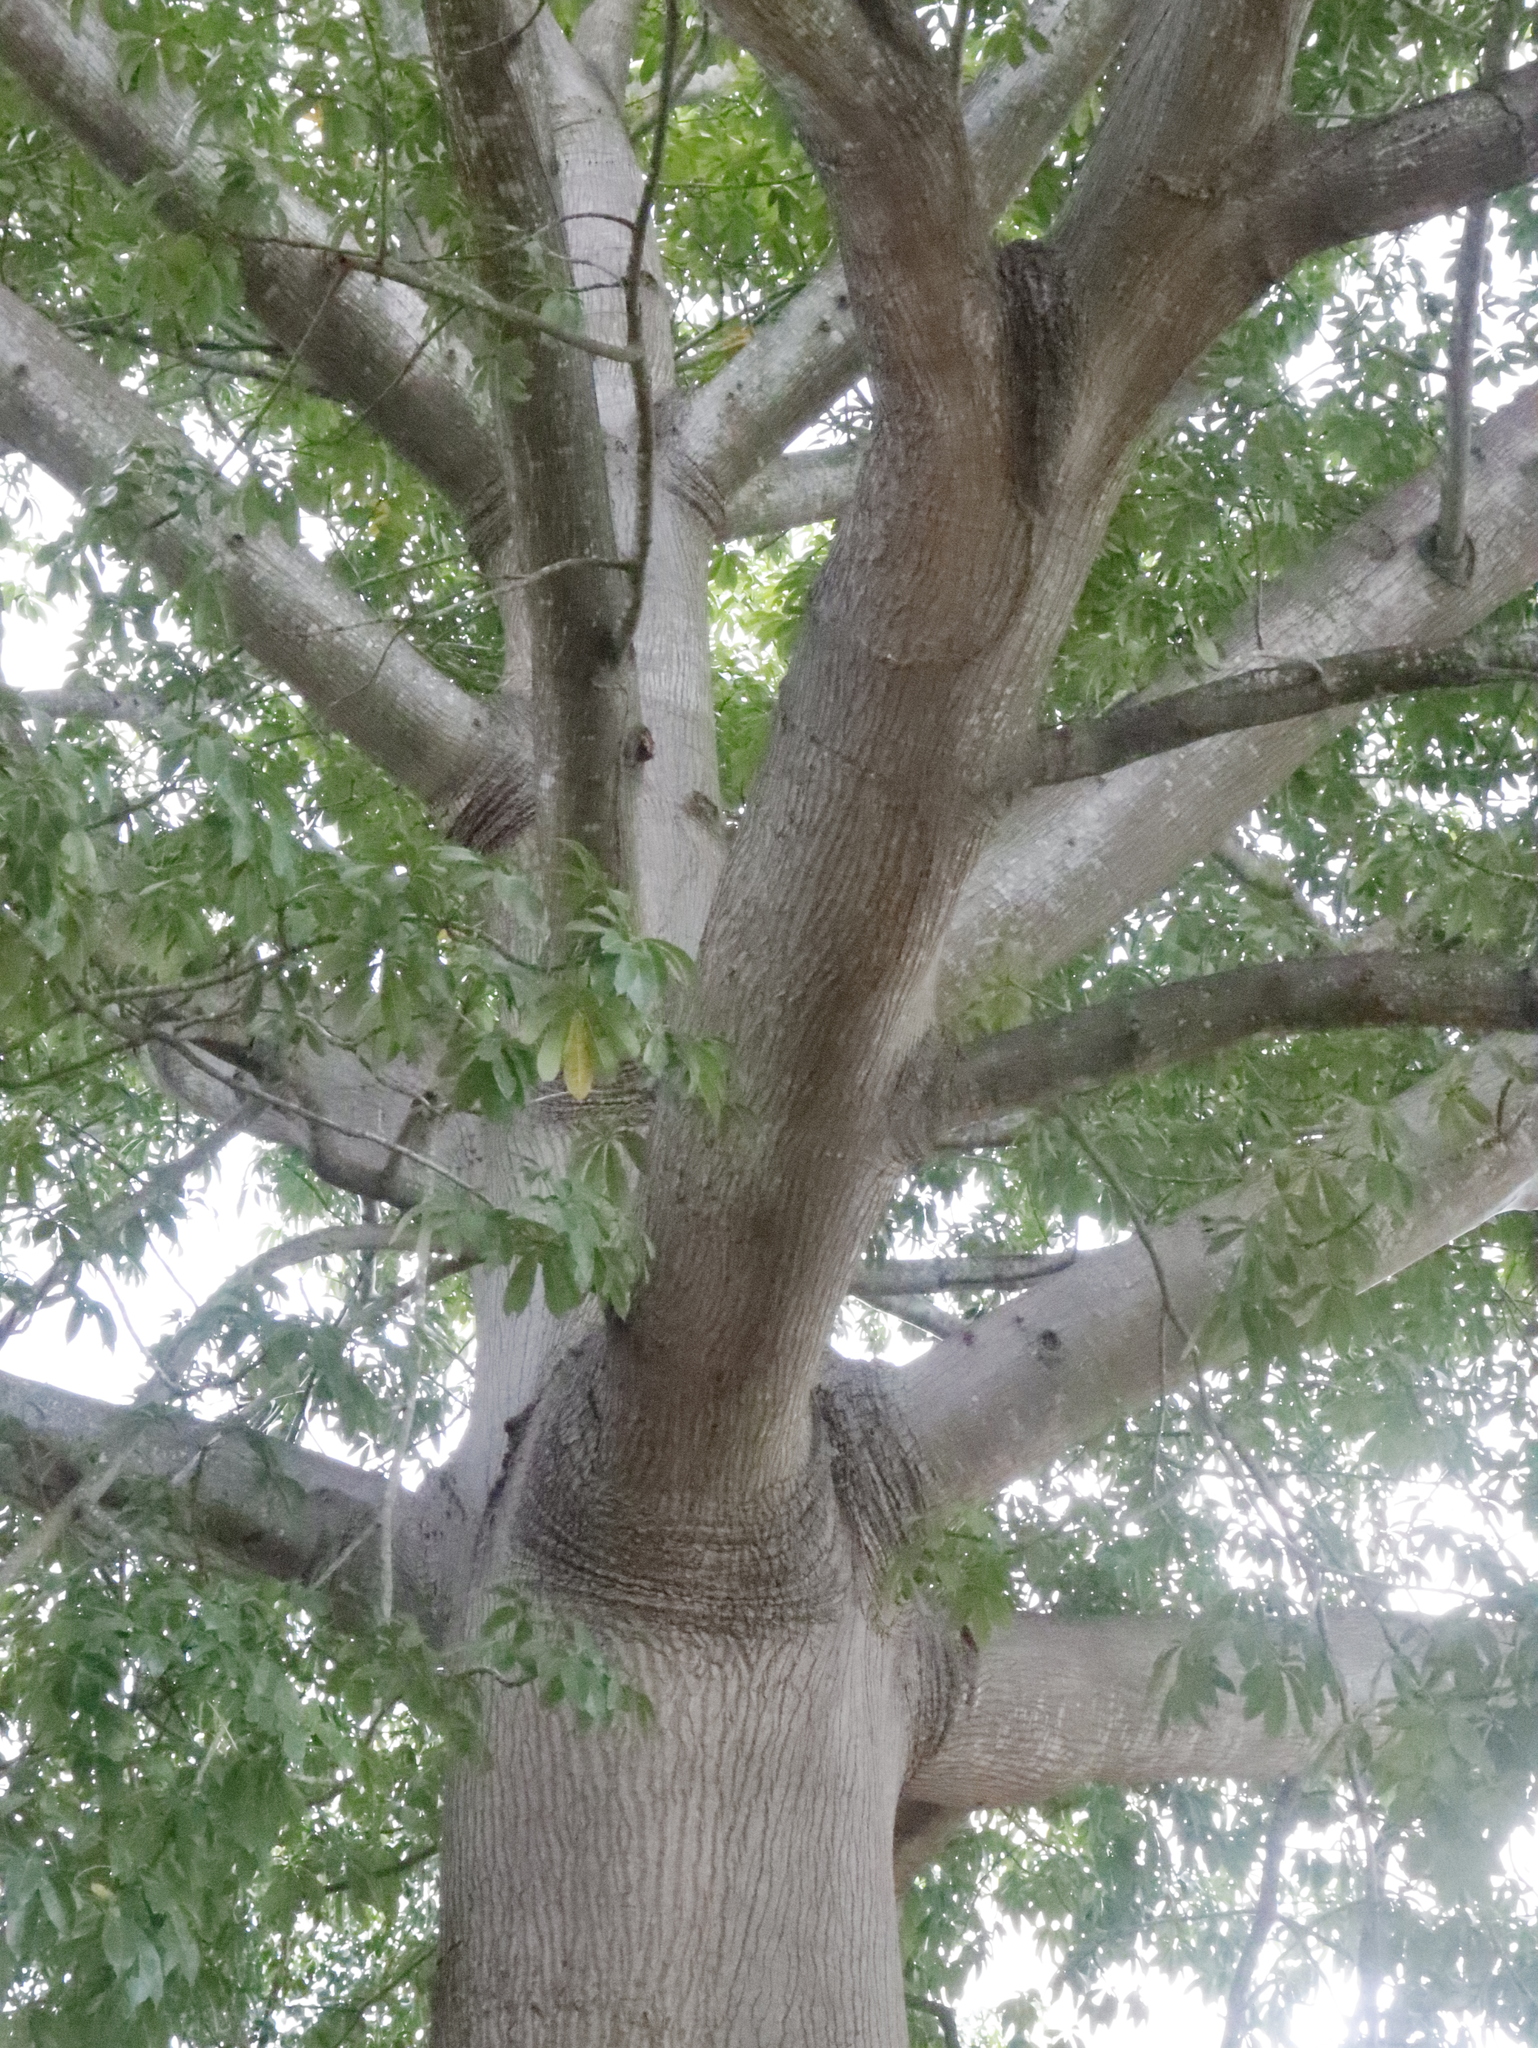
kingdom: Plantae
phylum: Tracheophyta
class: Magnoliopsida
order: Malvales
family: Malvaceae
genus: Ceiba
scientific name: Ceiba pentandra
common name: Kapok
